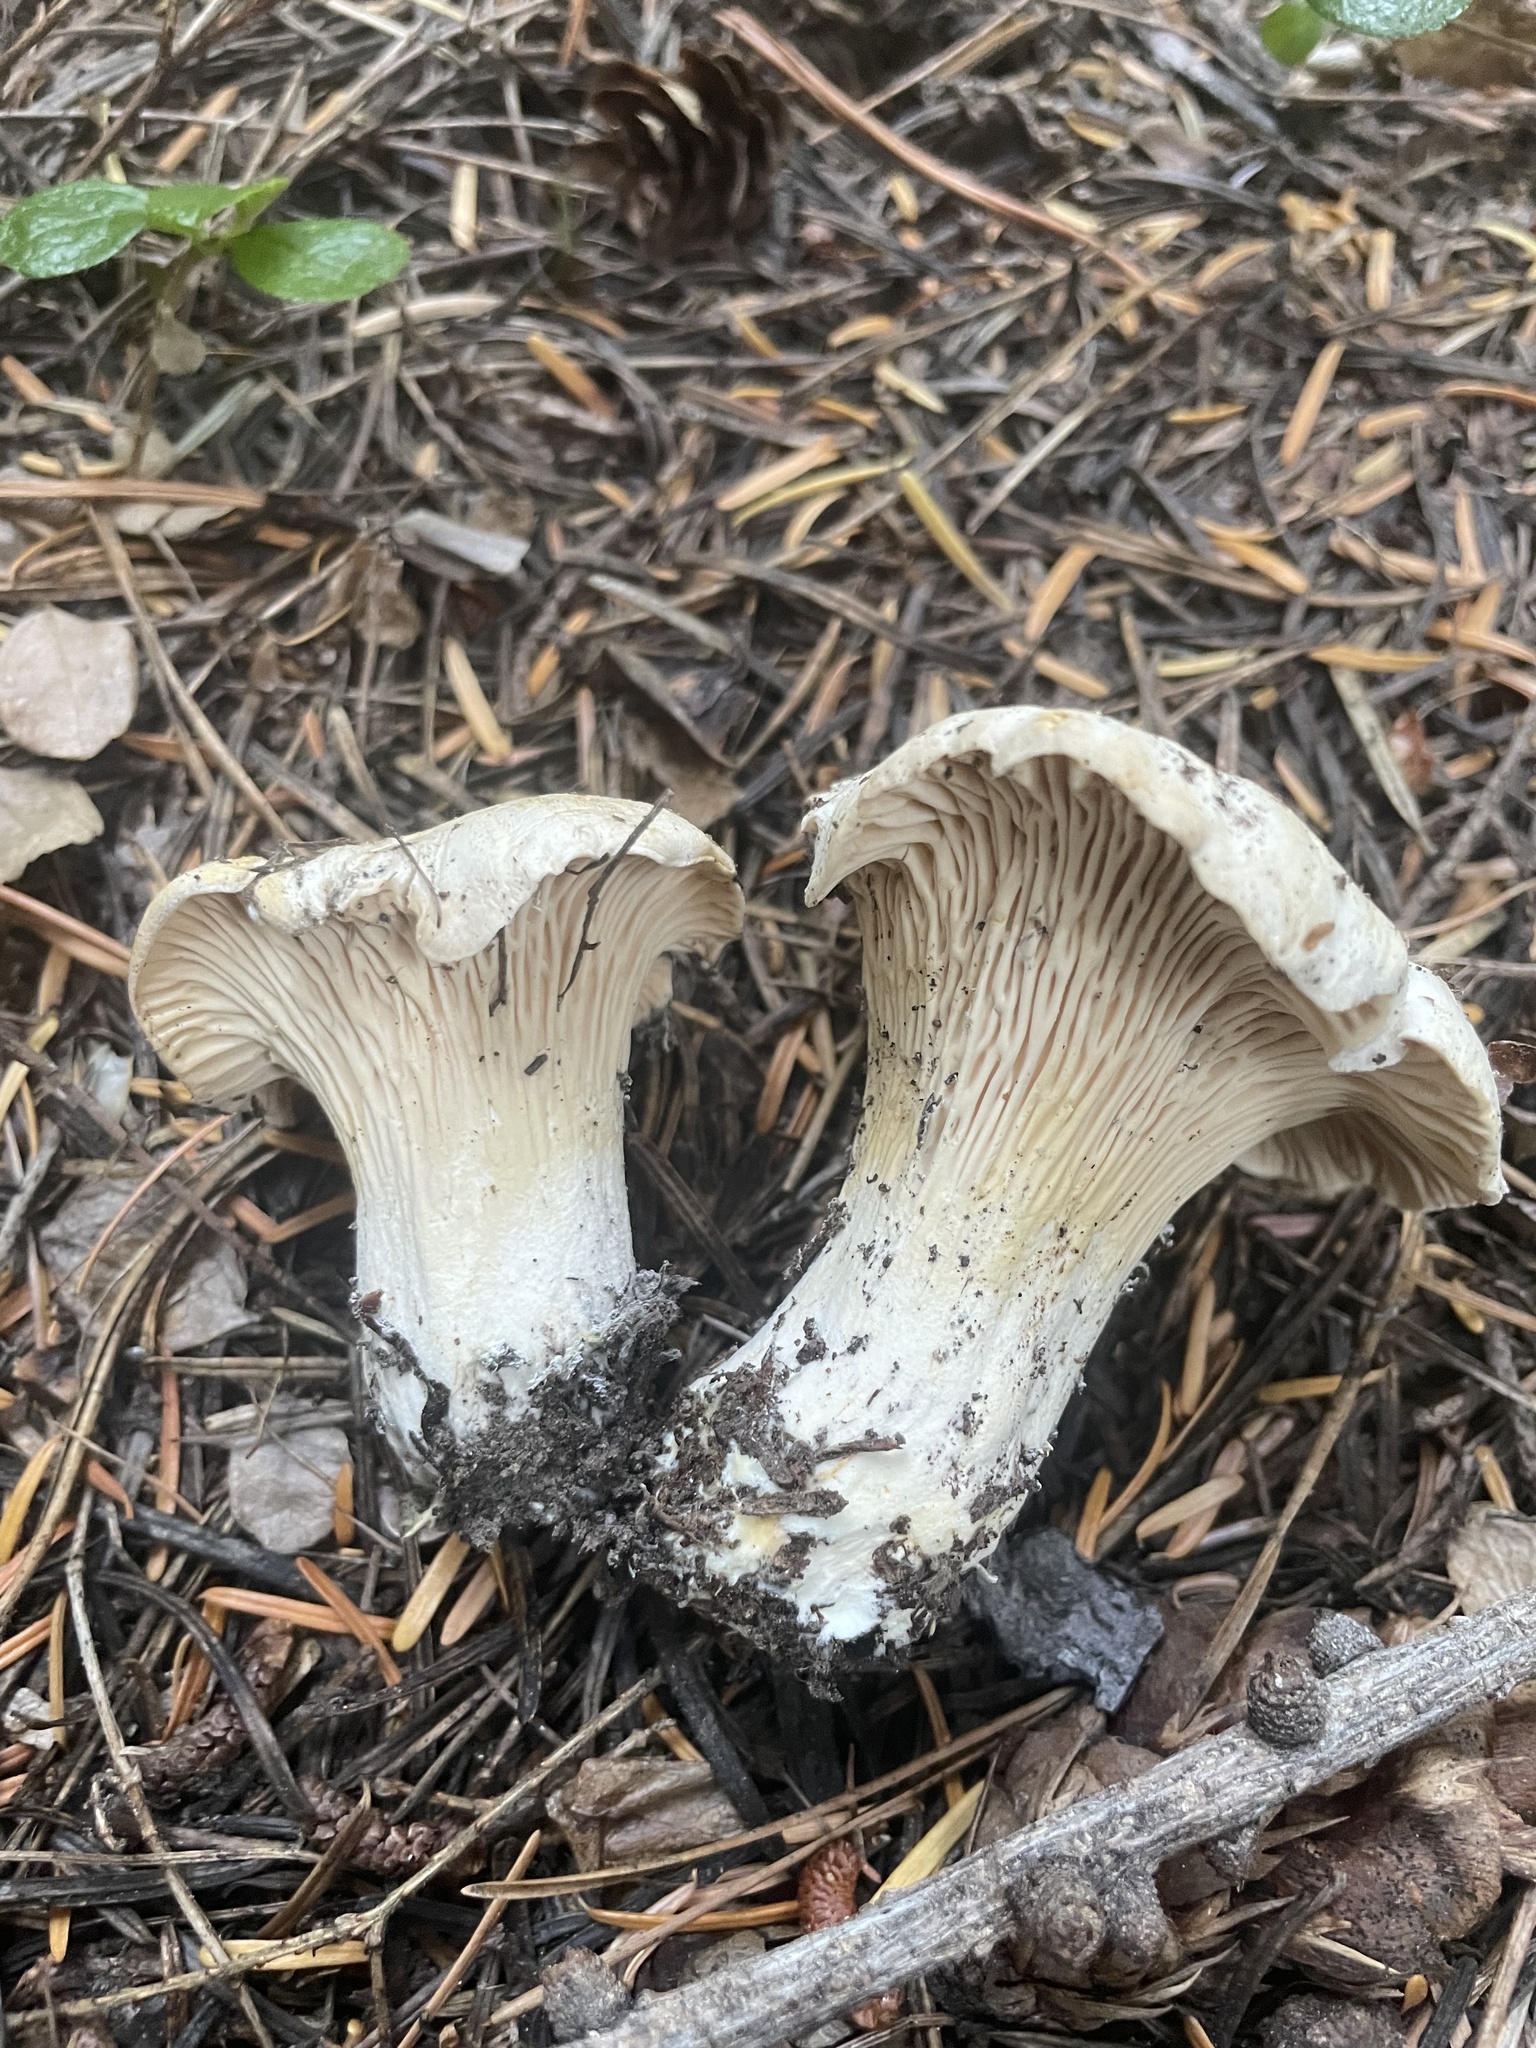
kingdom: Fungi
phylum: Basidiomycota
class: Agaricomycetes
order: Cantharellales
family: Hydnaceae
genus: Cantharellus
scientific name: Cantharellus subalbidus
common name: White chanterelle
